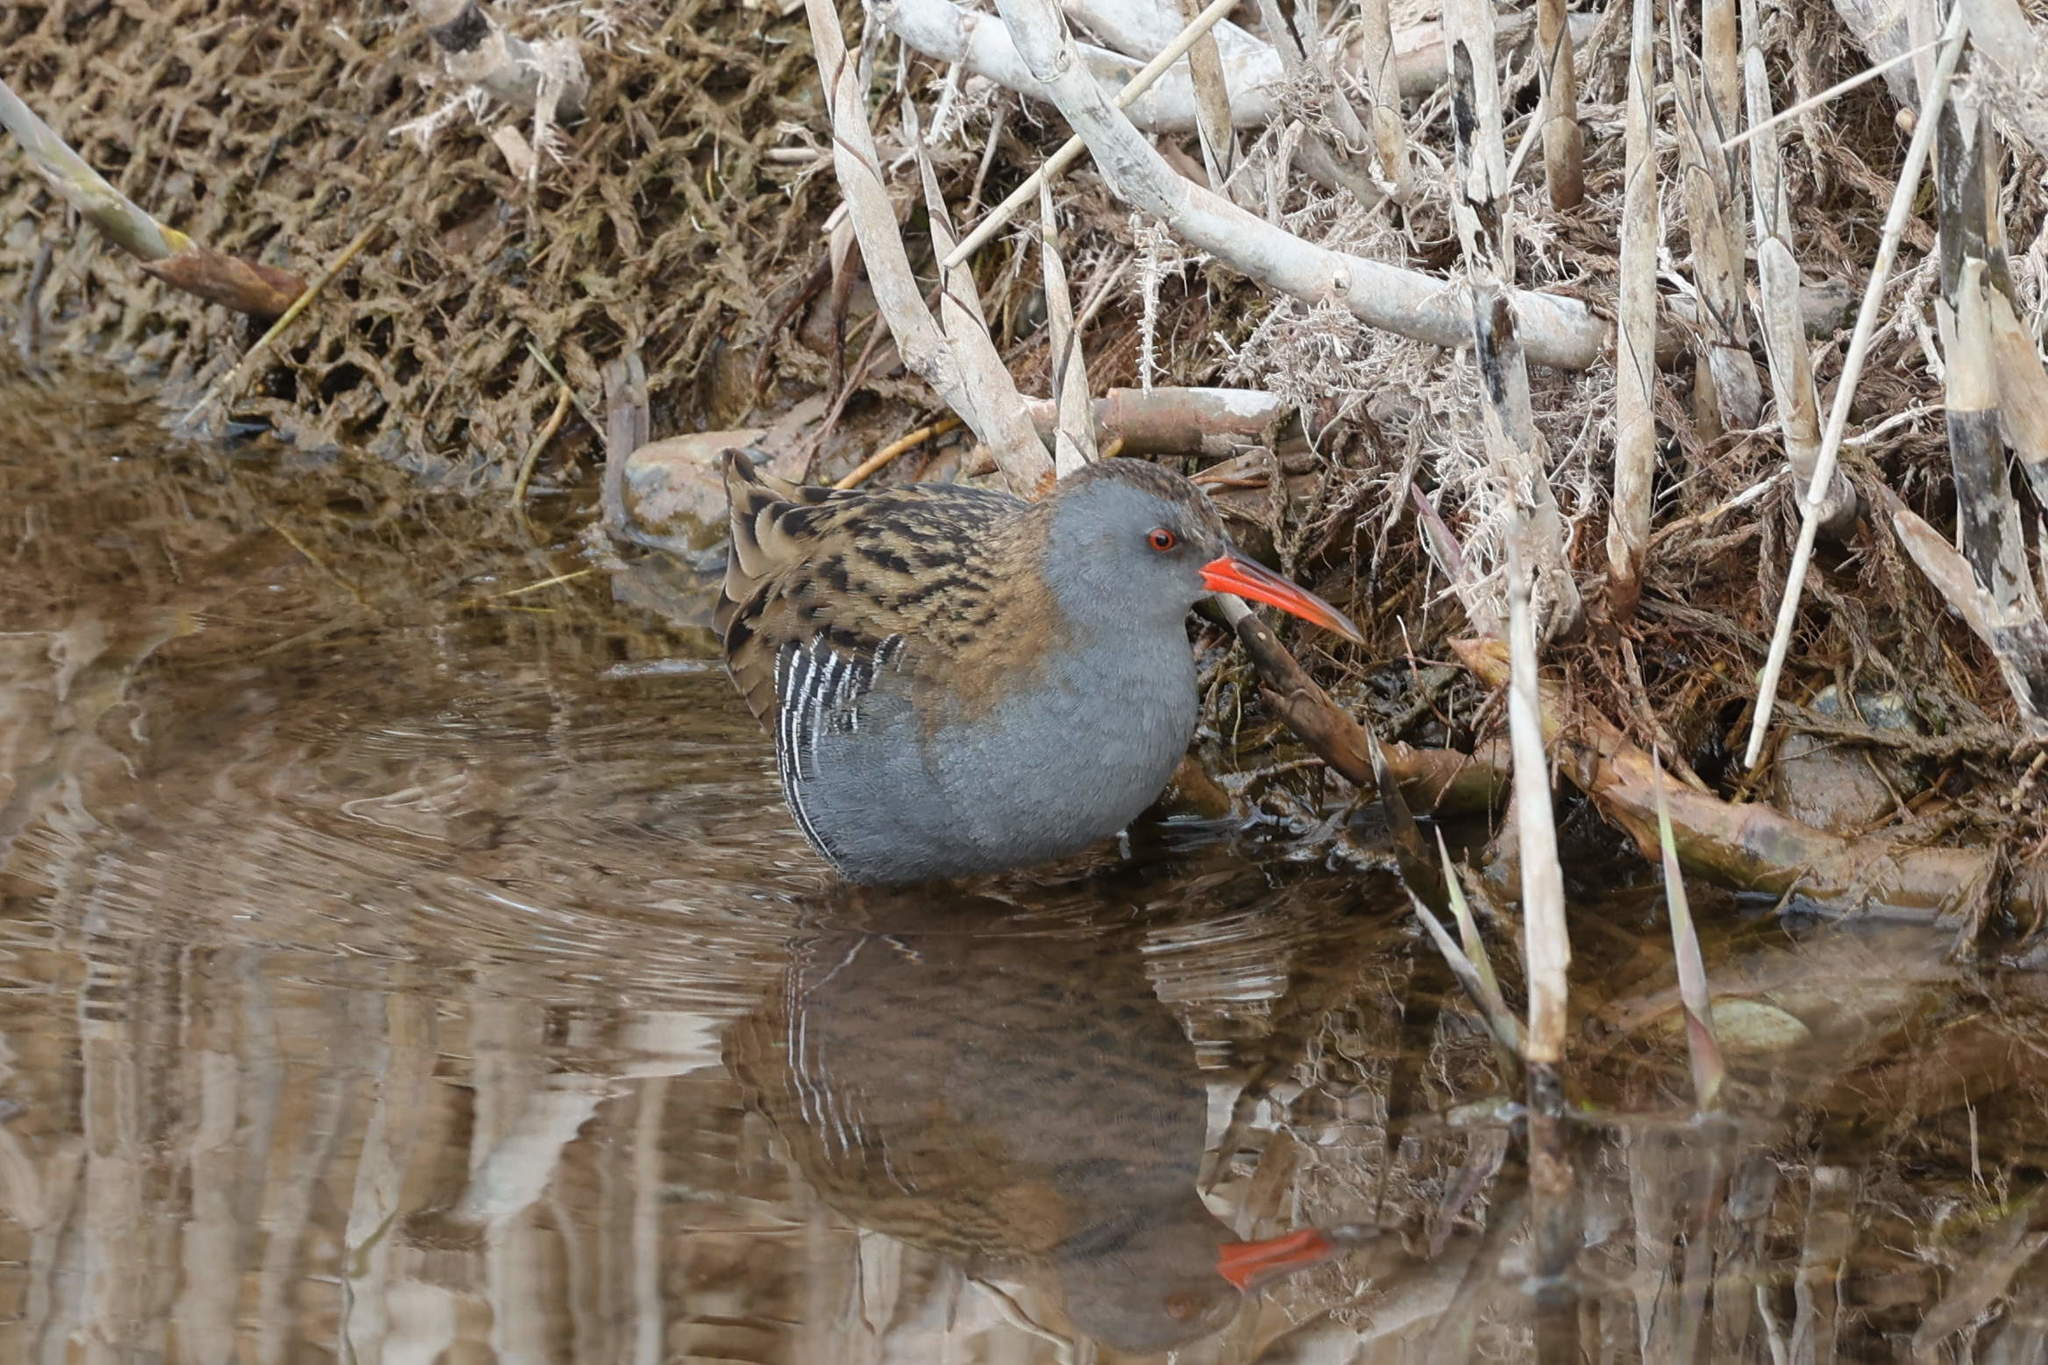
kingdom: Animalia
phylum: Chordata
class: Aves
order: Gruiformes
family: Rallidae
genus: Rallus
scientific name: Rallus aquaticus
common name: Water rail
